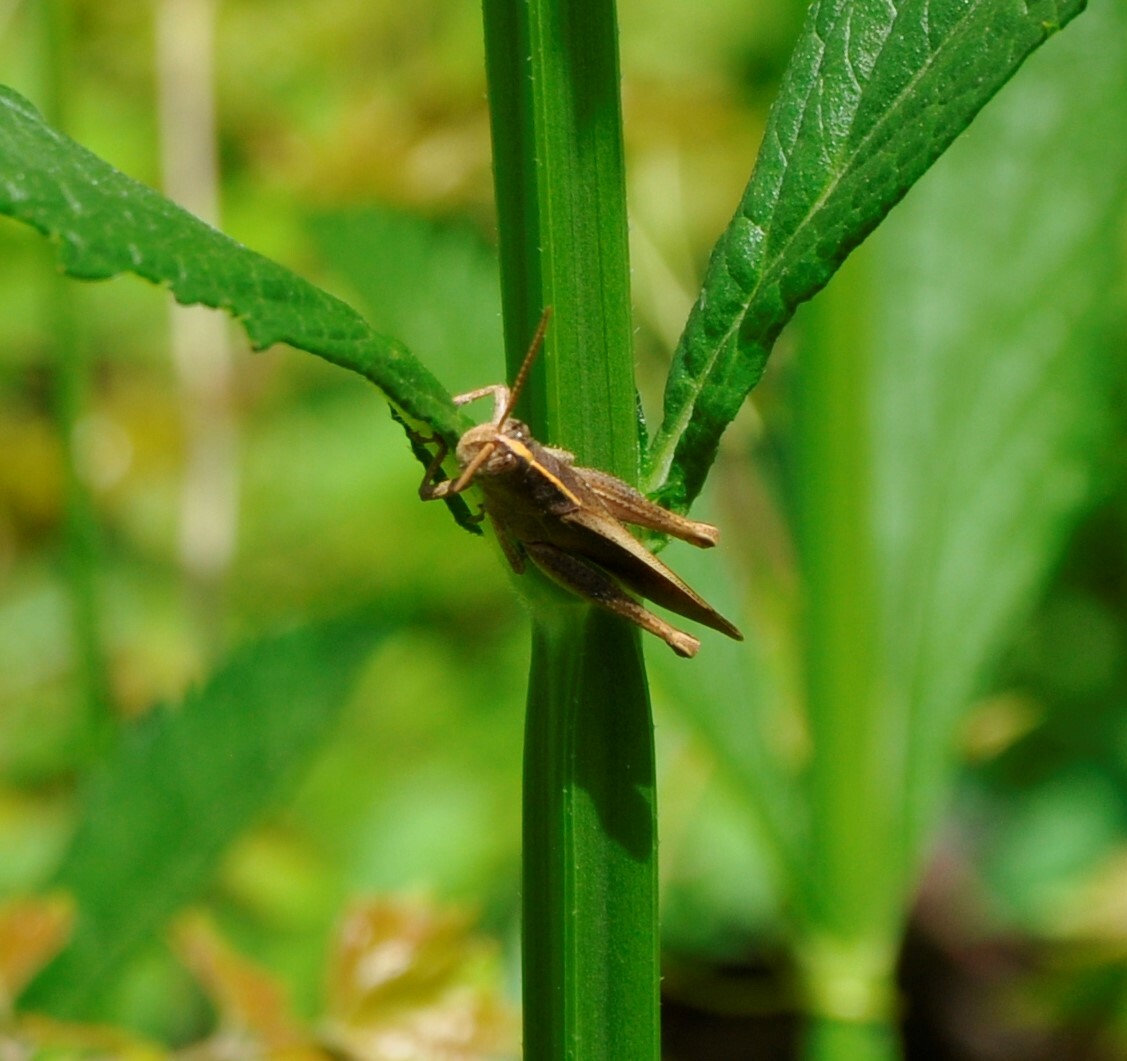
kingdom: Animalia
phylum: Arthropoda
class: Insecta
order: Orthoptera
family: Acrididae
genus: Schistocerca
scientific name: Schistocerca damnifica
